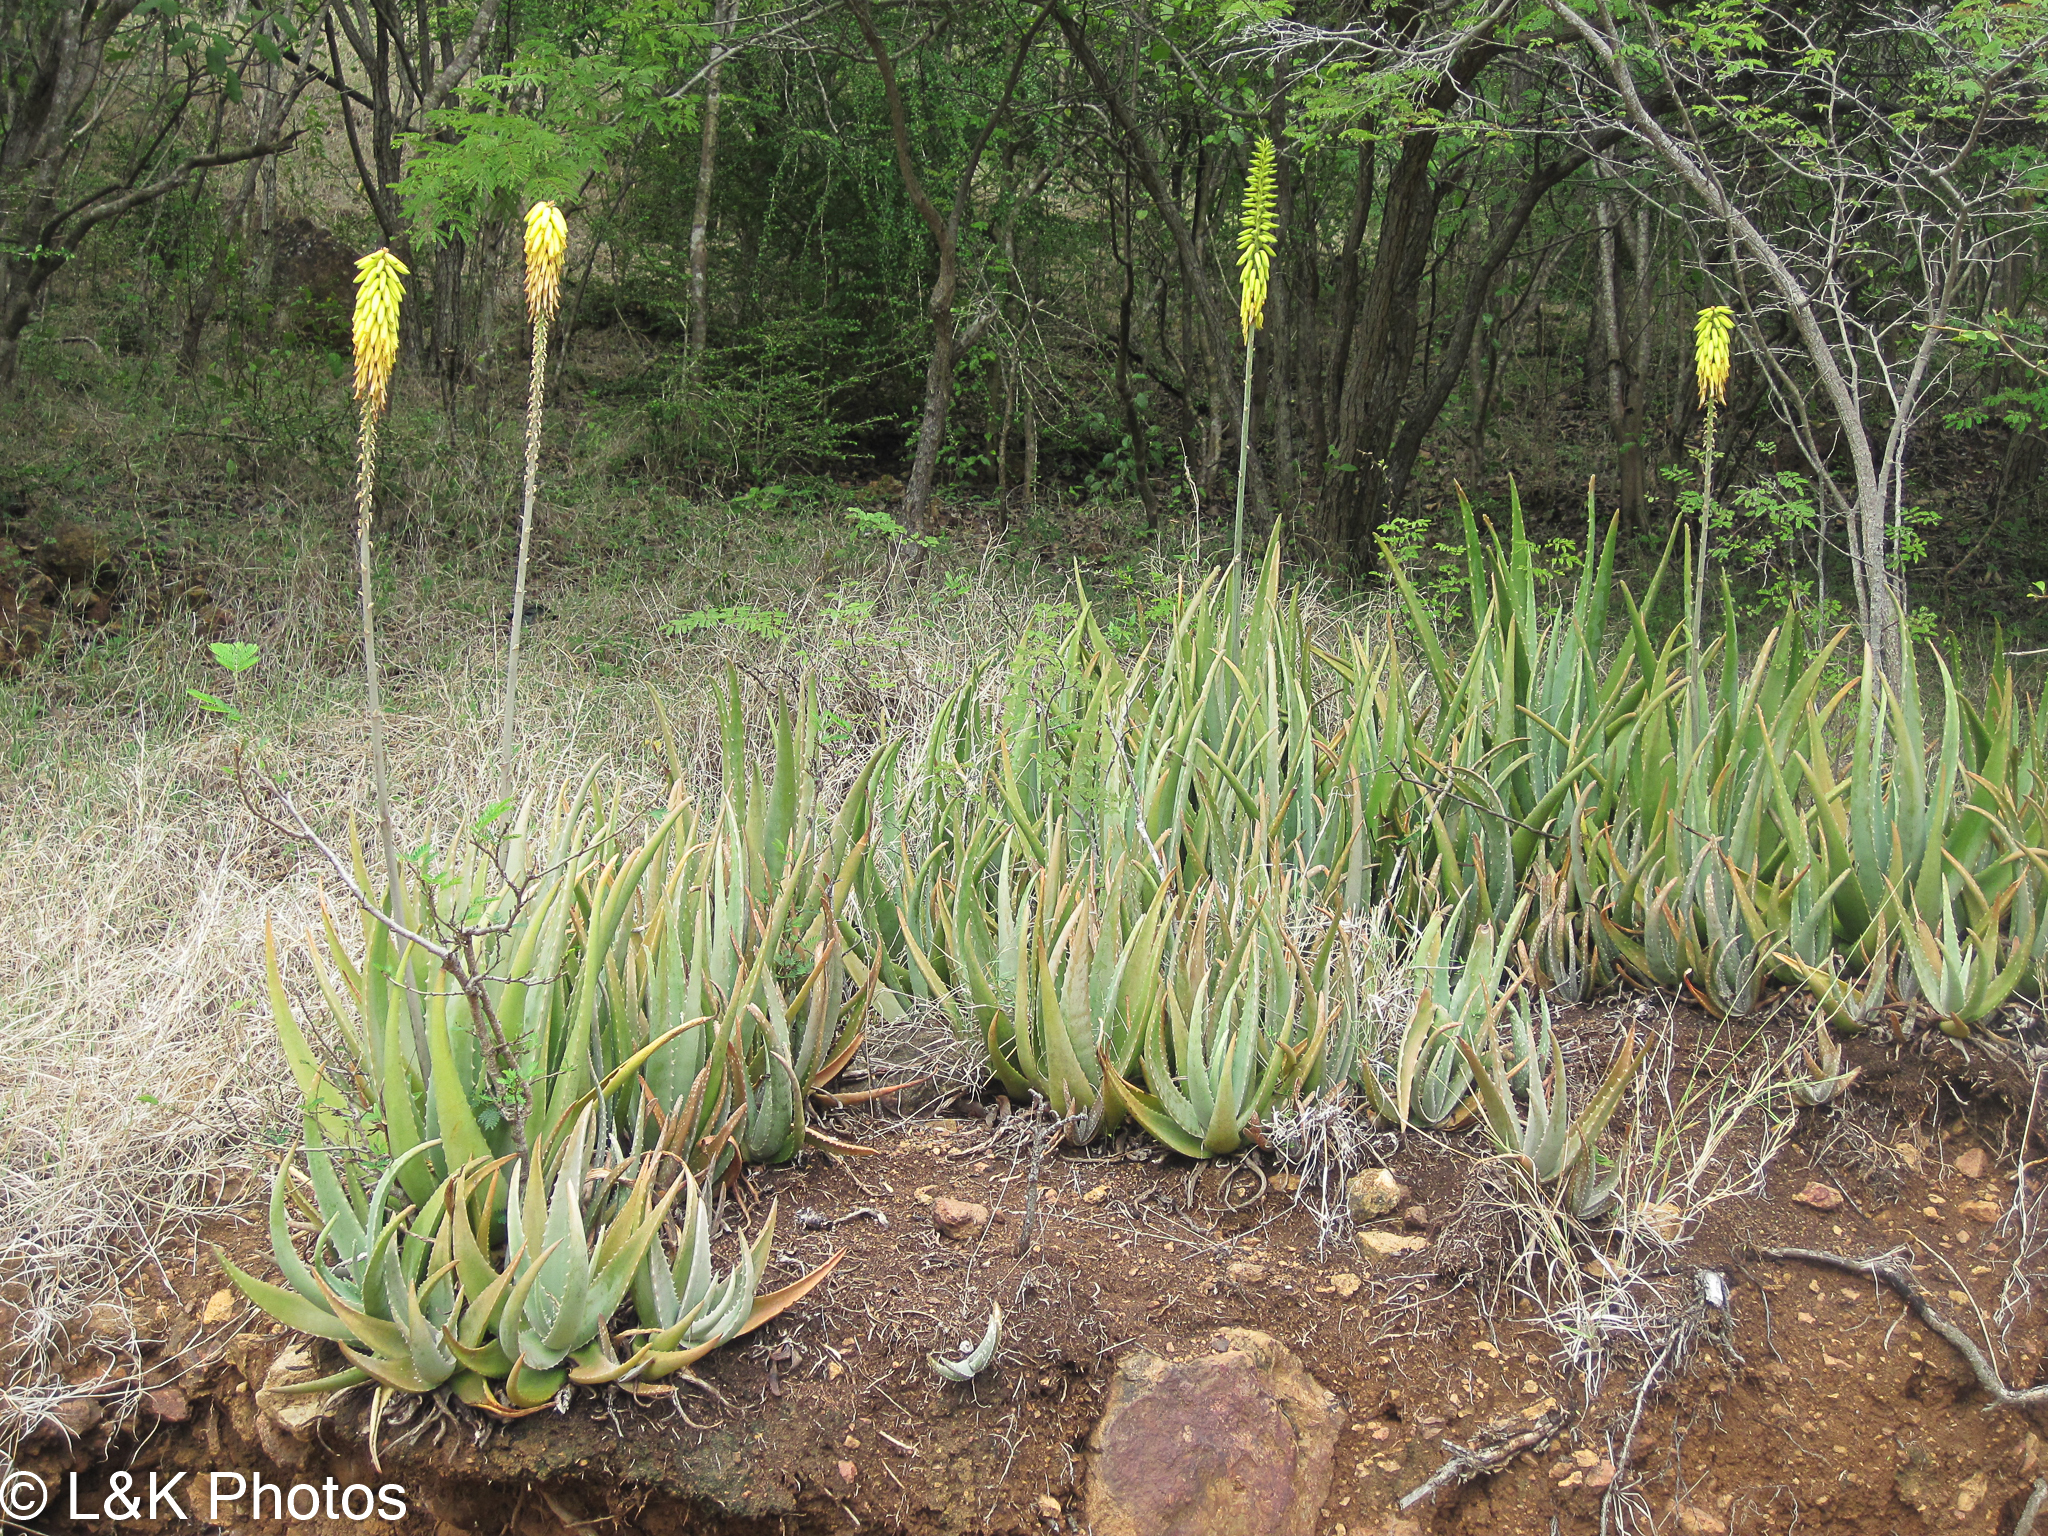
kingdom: Plantae
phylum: Tracheophyta
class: Liliopsida
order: Asparagales
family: Asphodelaceae
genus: Aloe
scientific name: Aloe vera
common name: Barbados aloe
